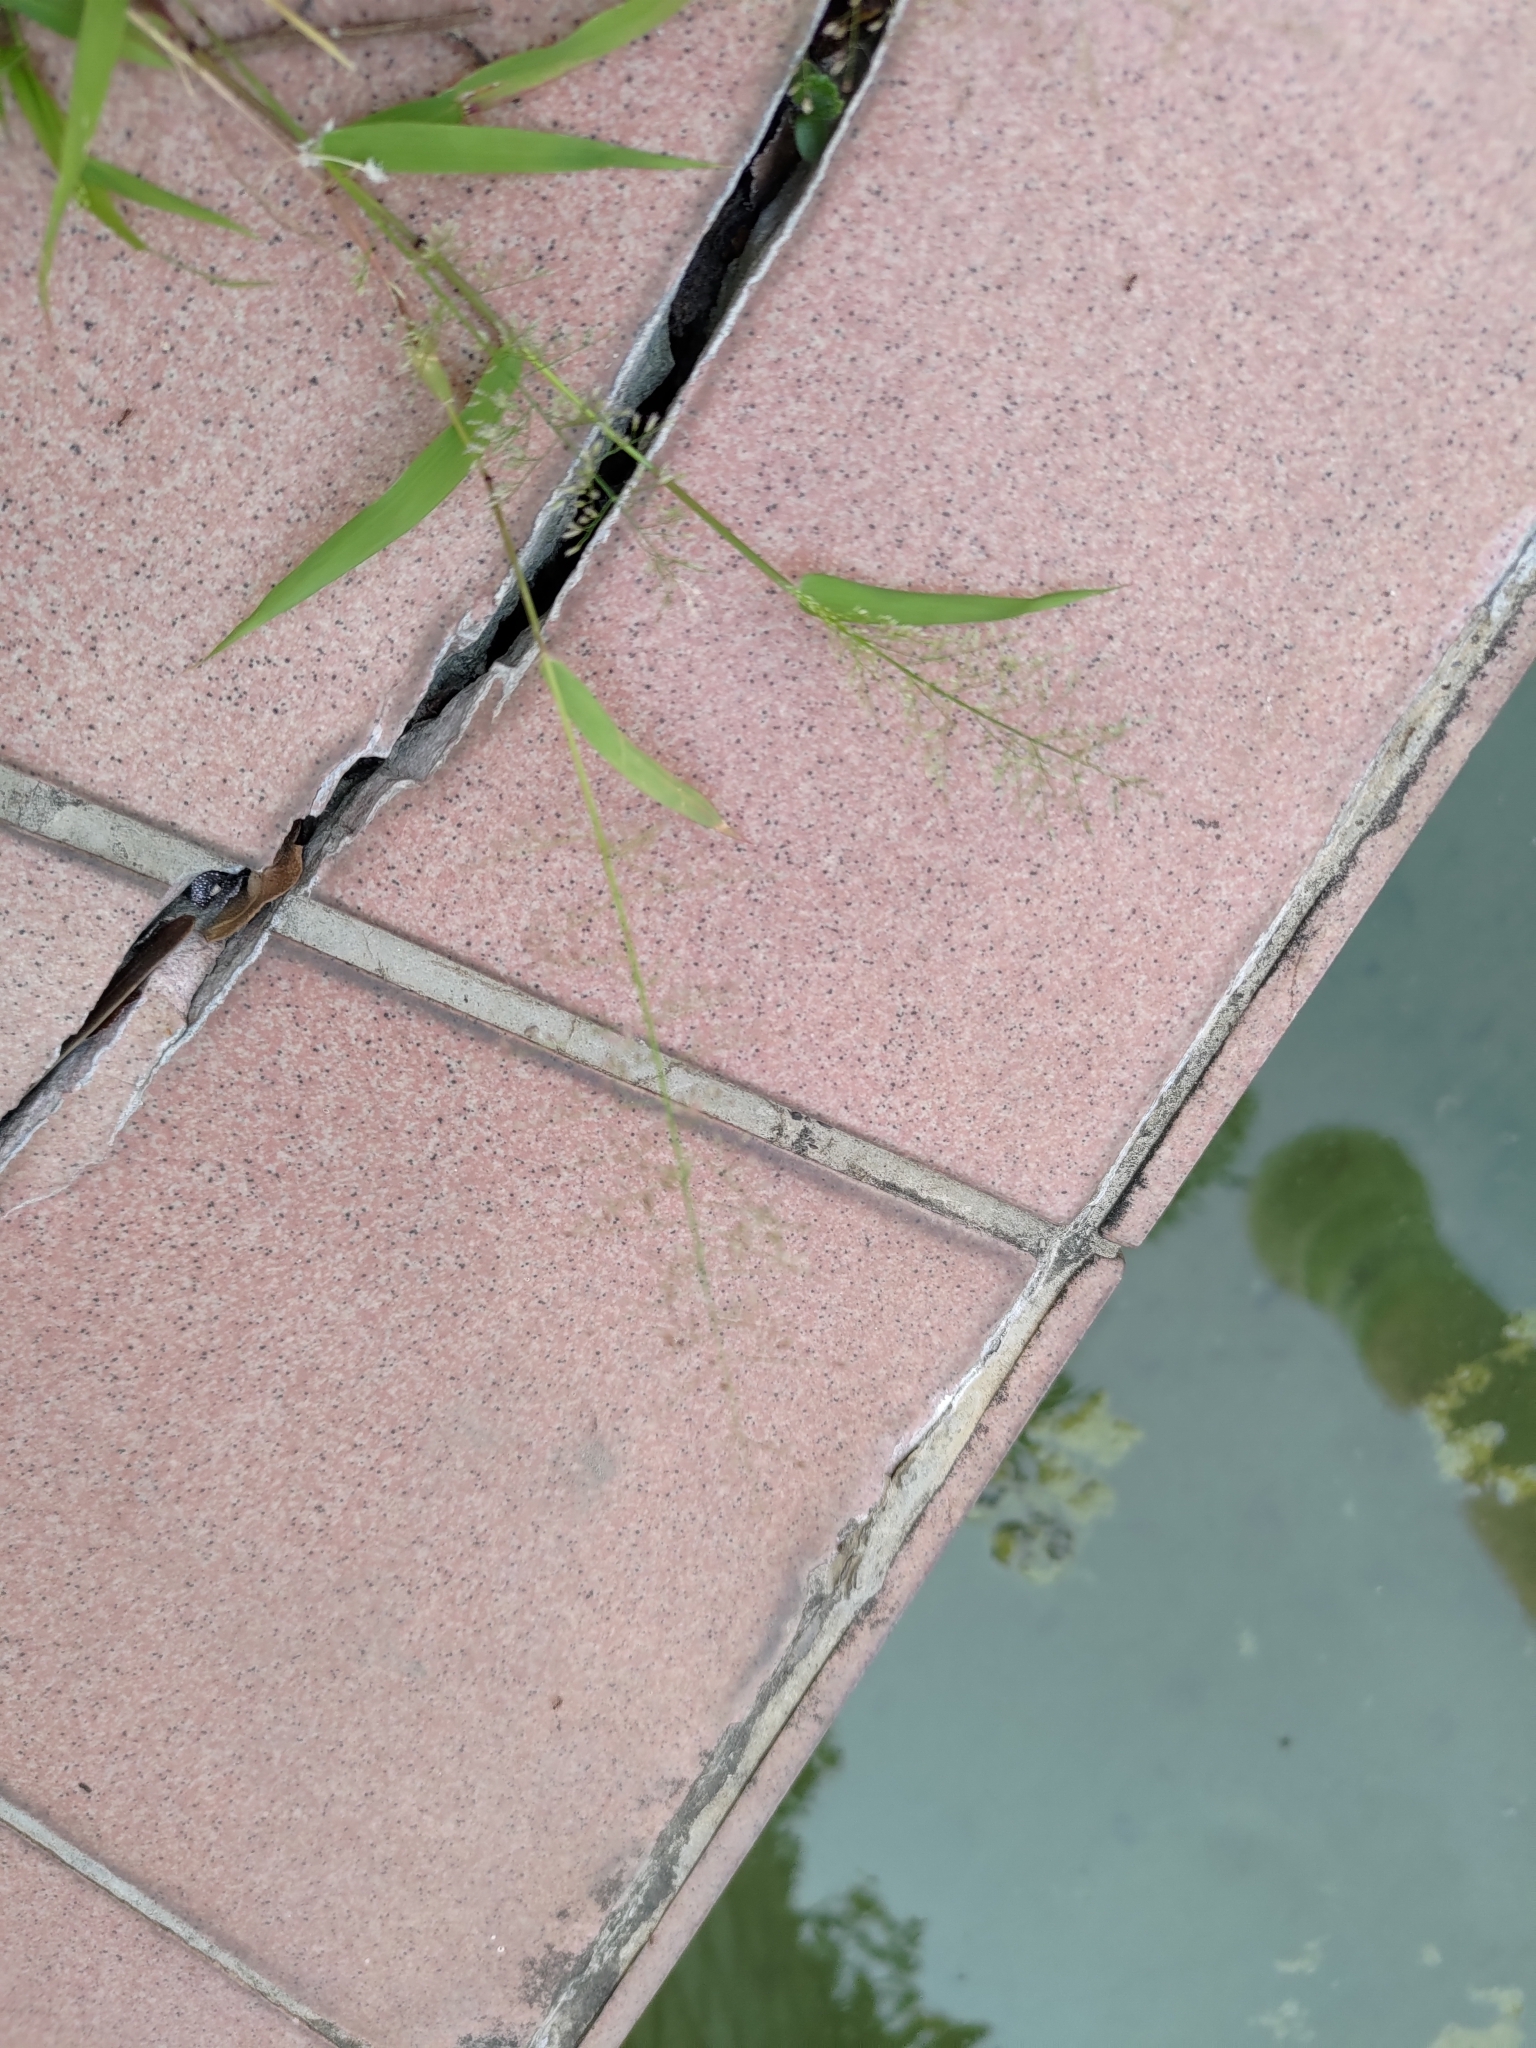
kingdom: Plantae
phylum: Tracheophyta
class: Liliopsida
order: Poales
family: Poaceae
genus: Eragrostis
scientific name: Eragrostis tenella
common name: Japanese lovegrass
